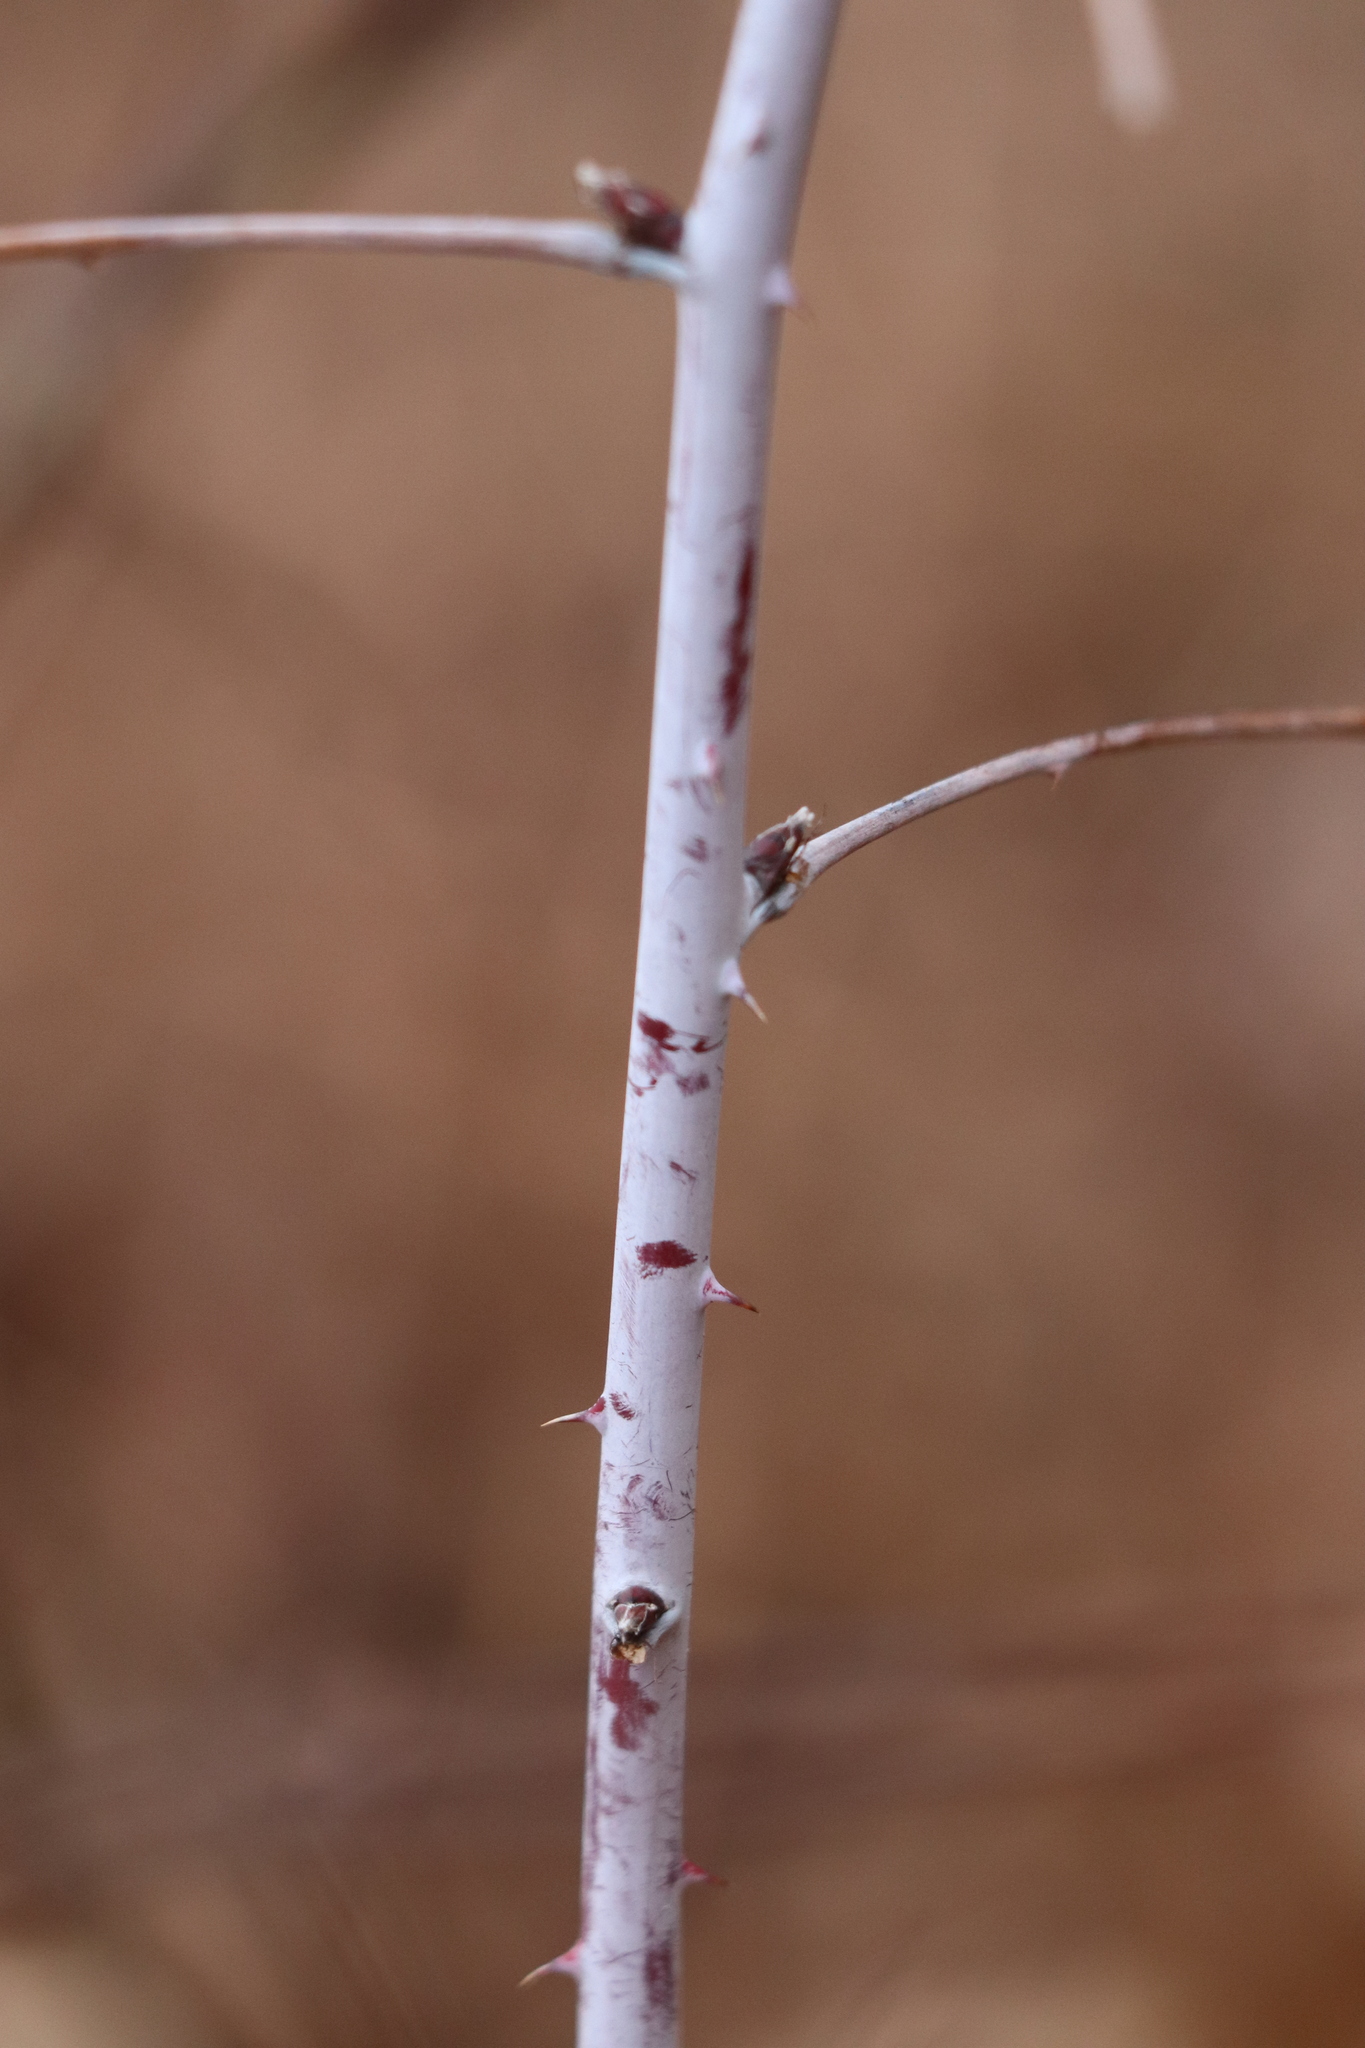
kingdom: Plantae
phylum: Tracheophyta
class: Magnoliopsida
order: Rosales
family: Rosaceae
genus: Rubus
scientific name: Rubus occidentalis
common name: Black raspberry
